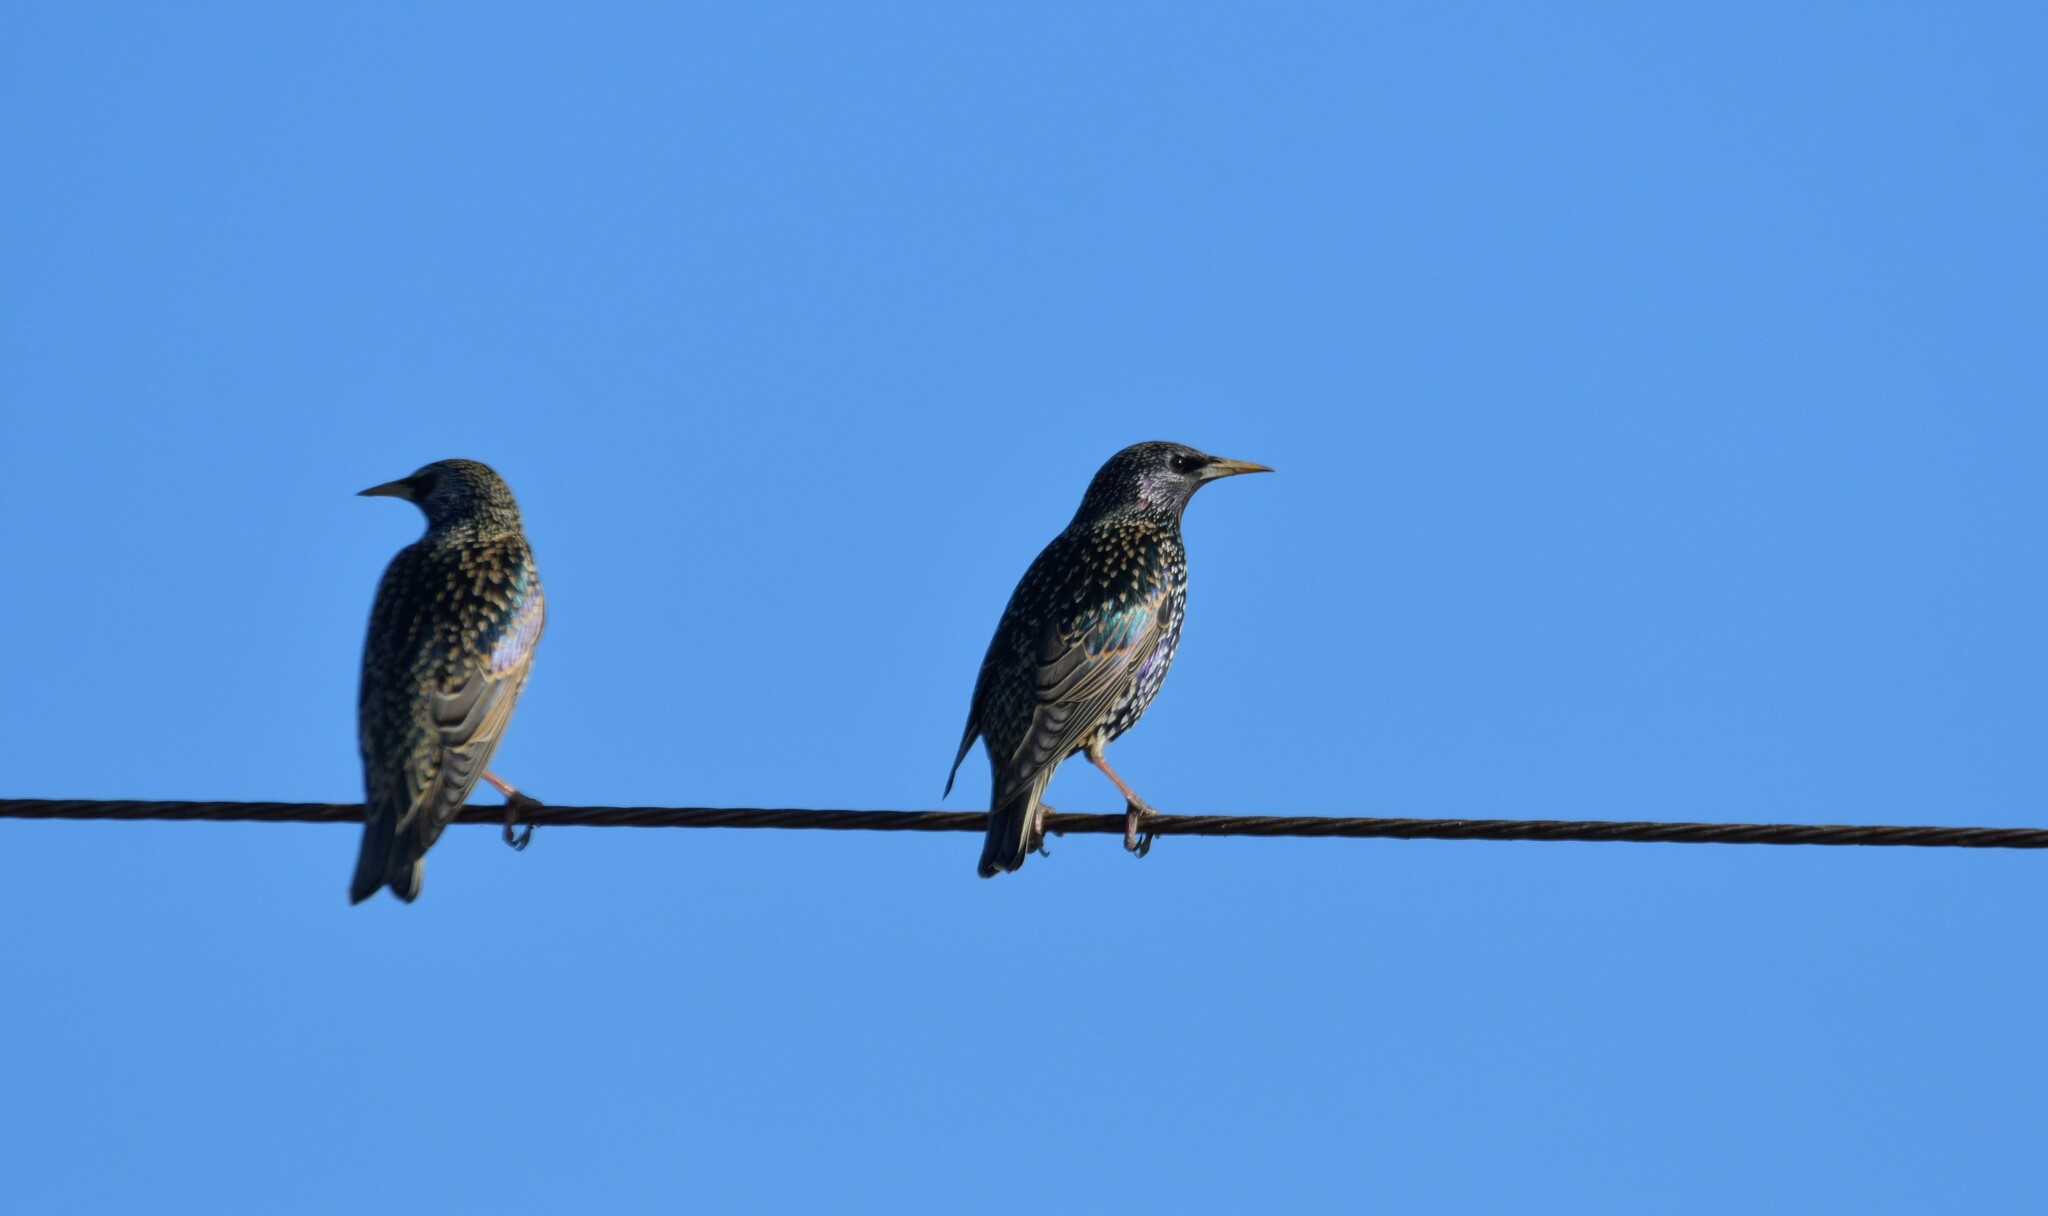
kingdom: Animalia
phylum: Chordata
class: Aves
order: Passeriformes
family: Sturnidae
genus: Sturnus
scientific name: Sturnus vulgaris
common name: Common starling
